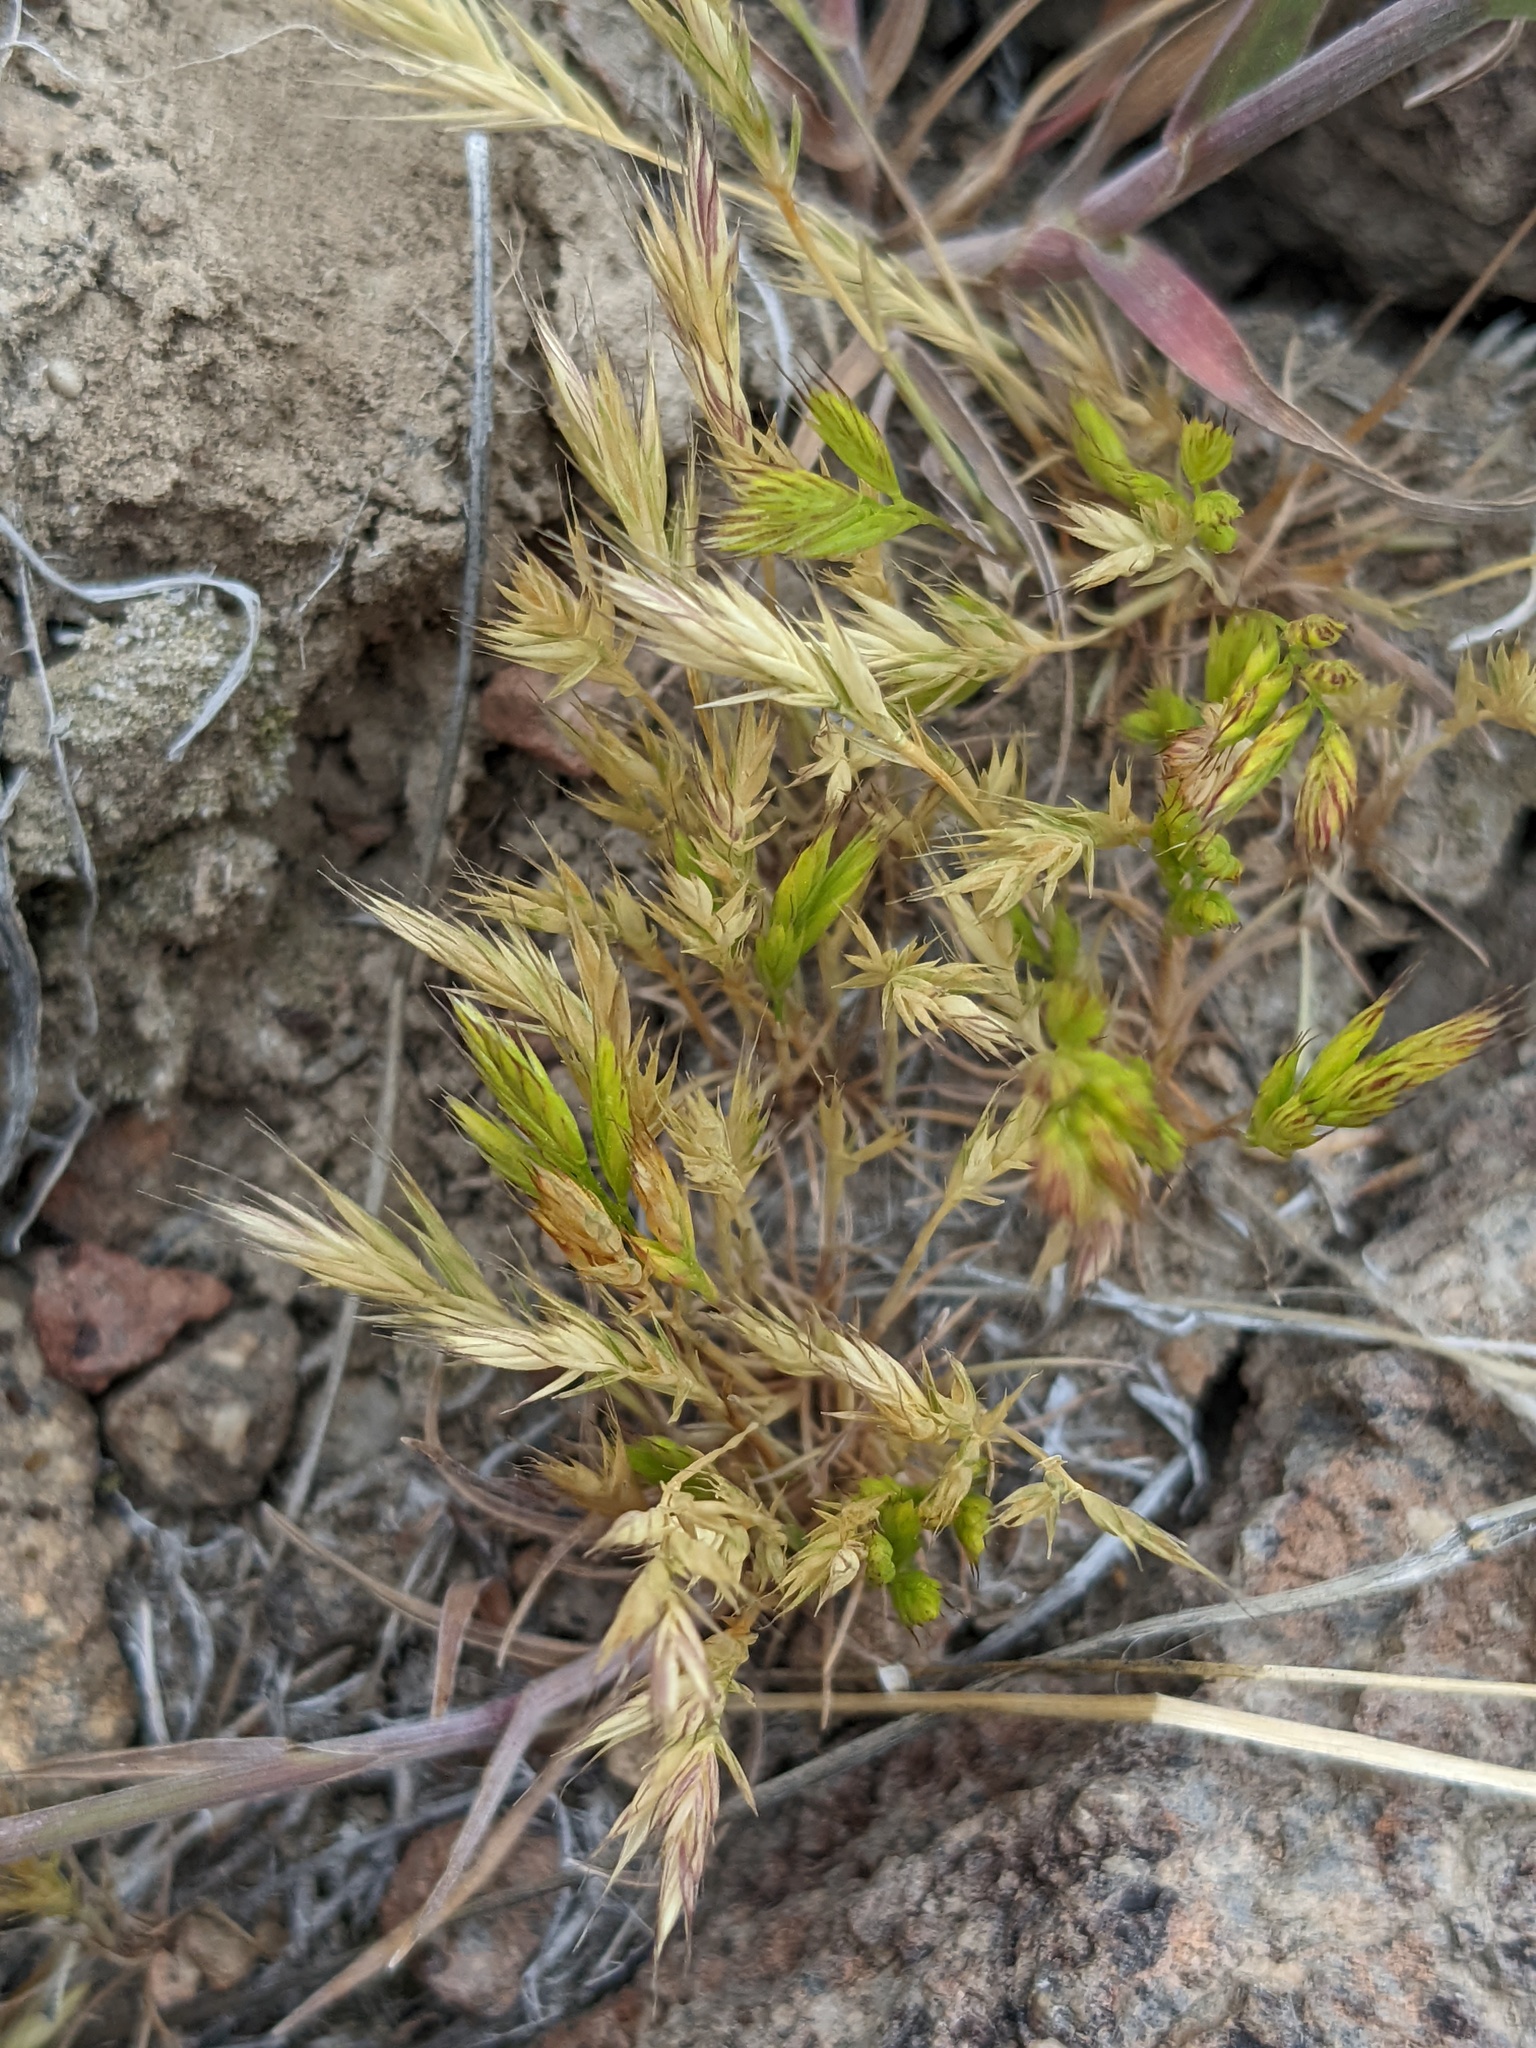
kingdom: Plantae
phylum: Tracheophyta
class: Liliopsida
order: Poales
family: Poaceae
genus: Festuca
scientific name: Festuca octoflora
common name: Sixweeks grass
